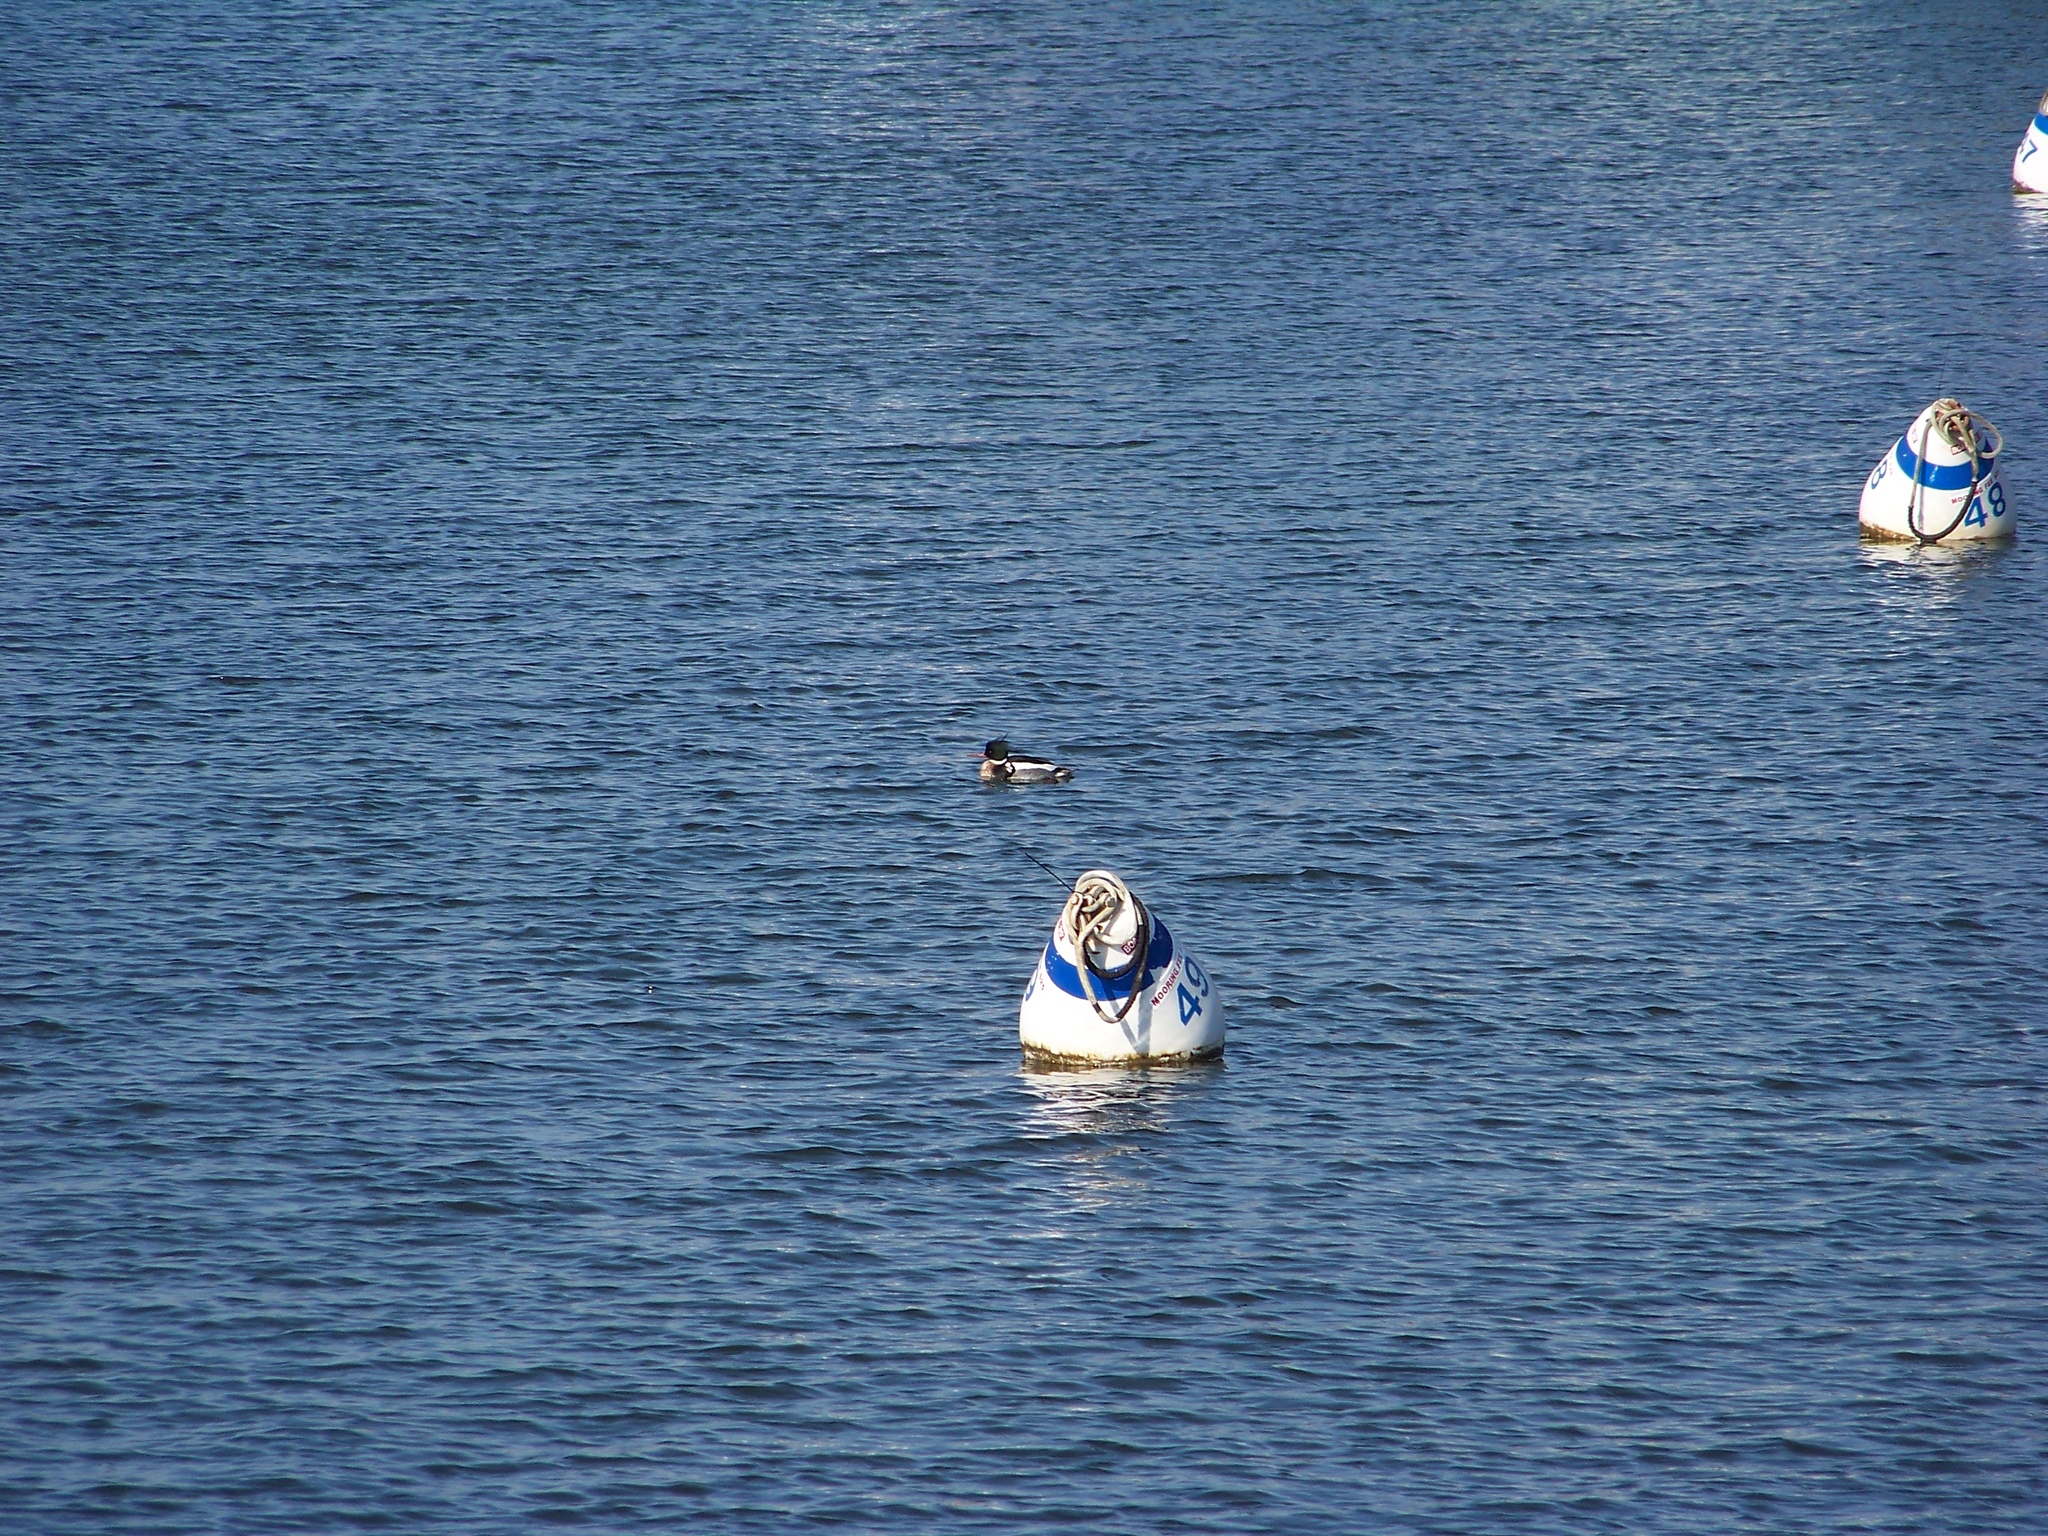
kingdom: Animalia
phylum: Chordata
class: Aves
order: Anseriformes
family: Anatidae
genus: Mergus
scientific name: Mergus serrator
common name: Red-breasted merganser
